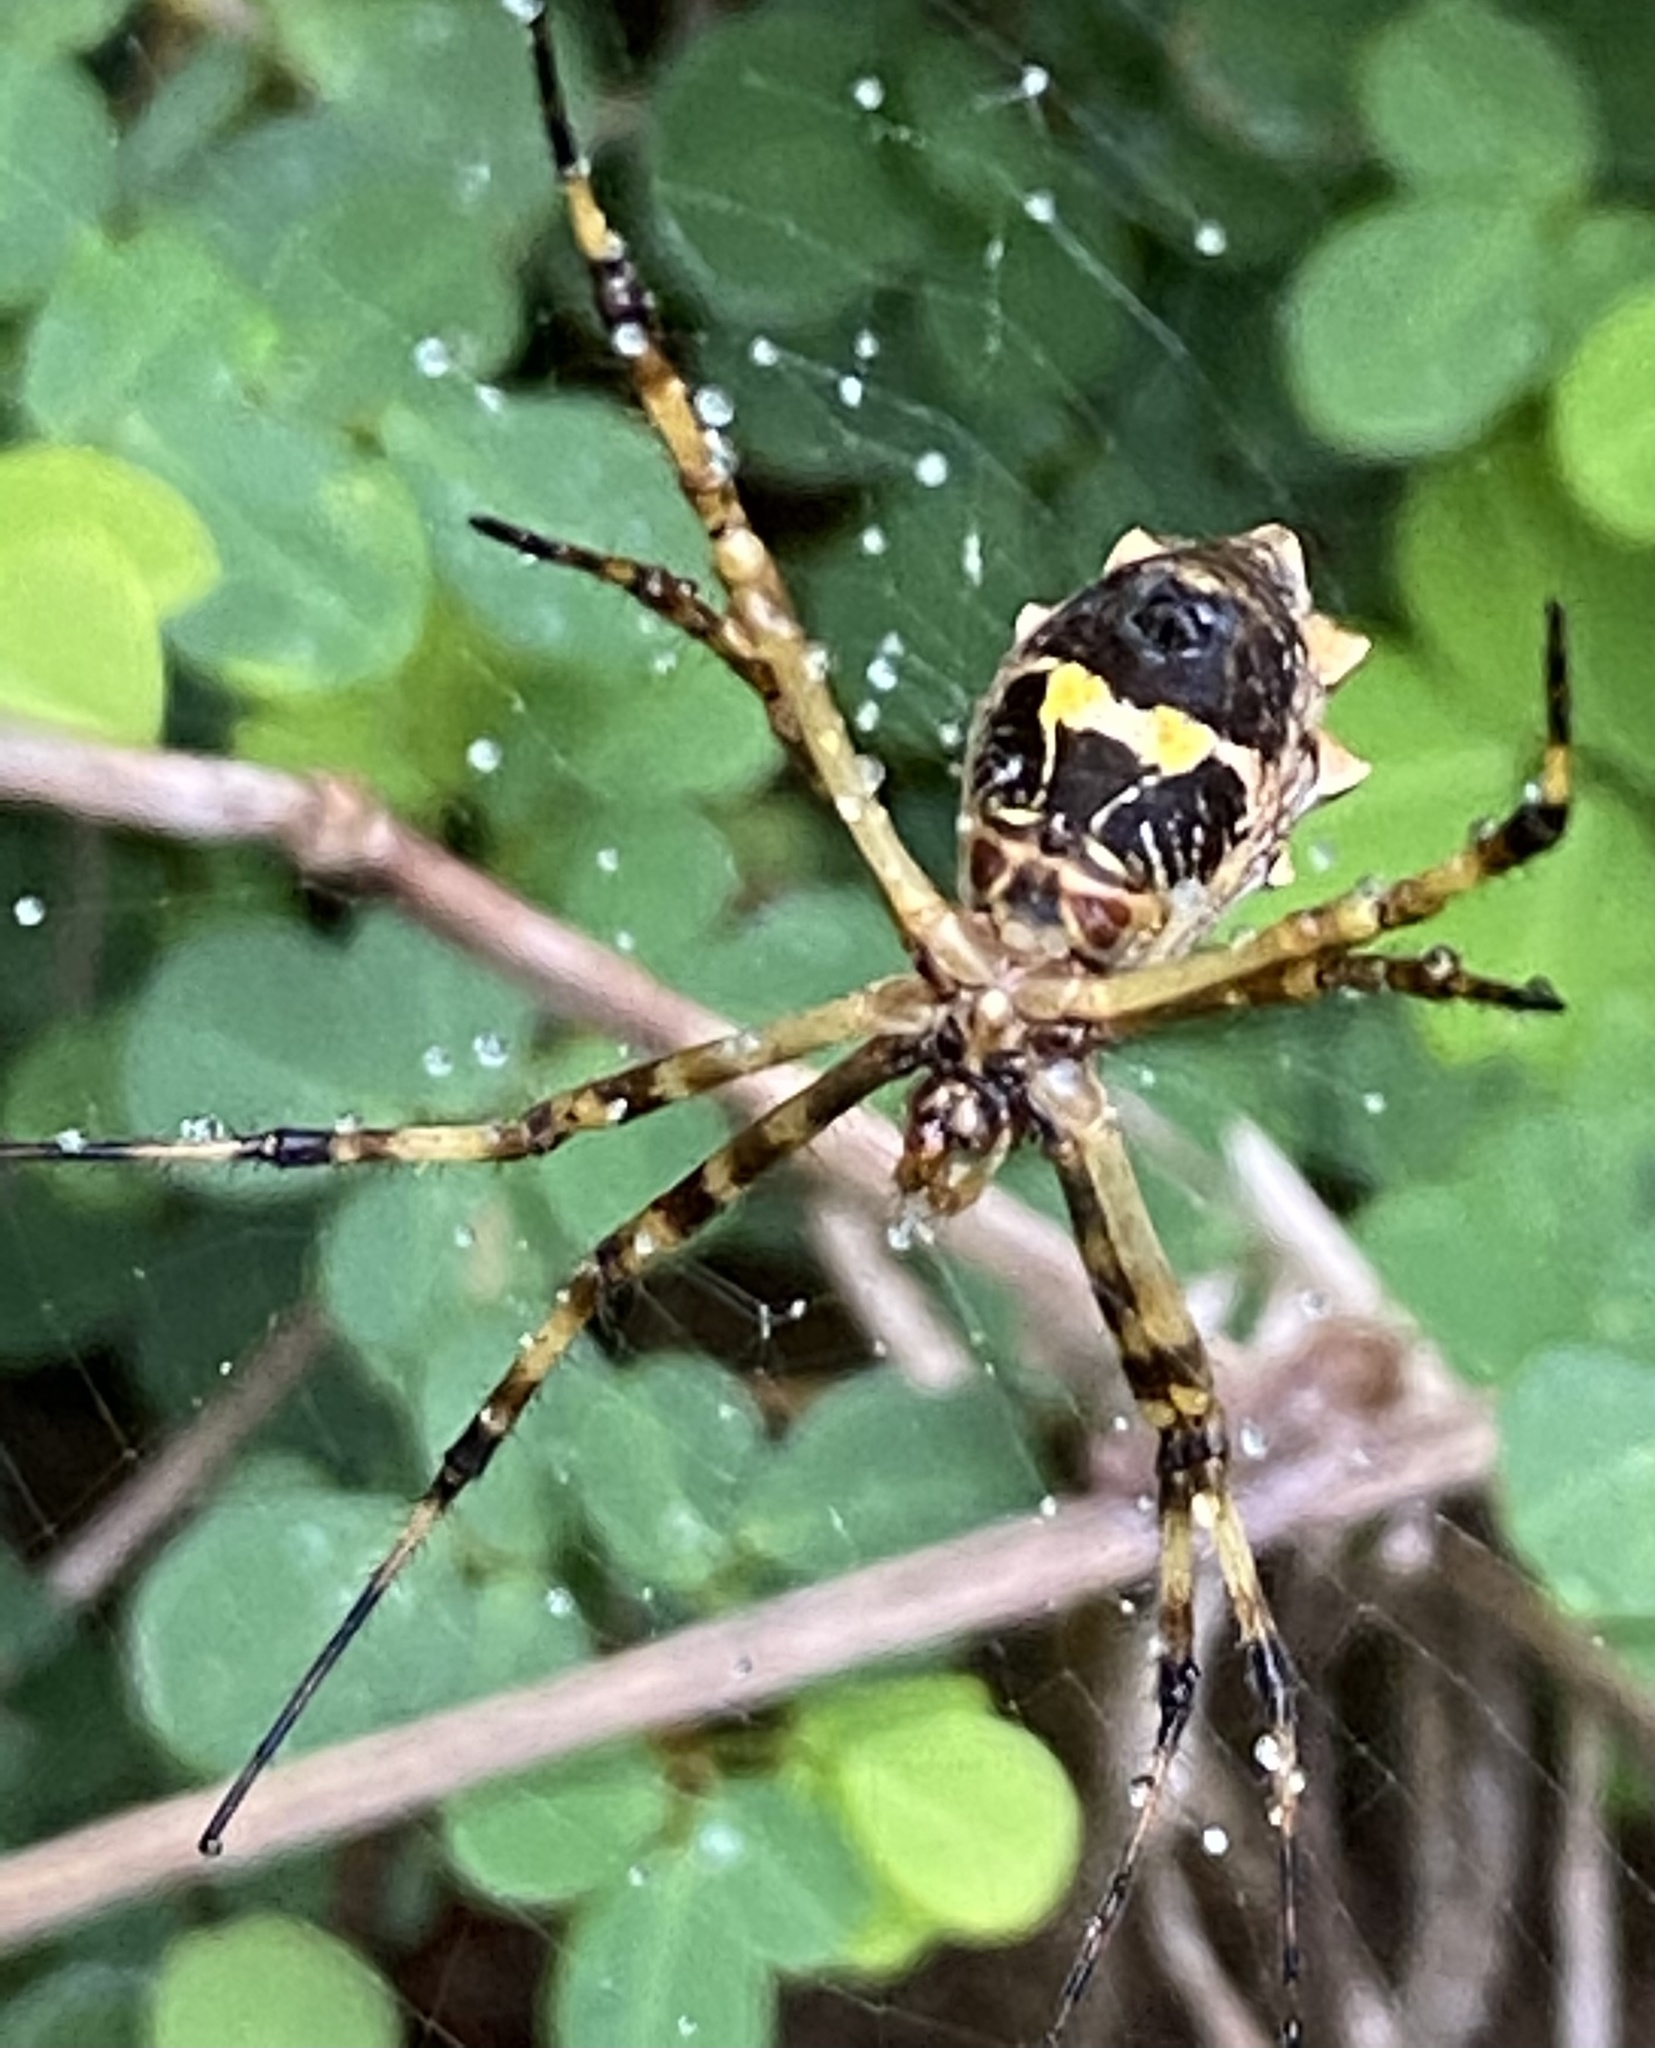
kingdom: Animalia
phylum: Arthropoda
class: Arachnida
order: Araneae
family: Araneidae
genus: Argiope
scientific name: Argiope argentata
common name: Orb weavers
